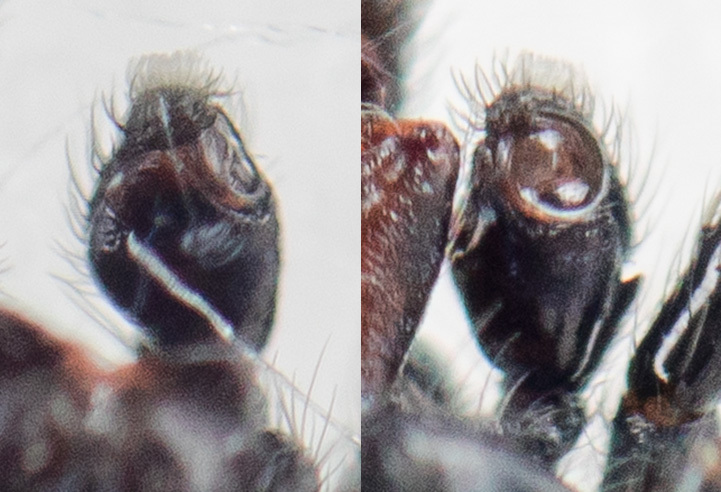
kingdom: Animalia
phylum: Arthropoda
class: Arachnida
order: Araneae
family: Salticidae
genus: Chalcoscirtus
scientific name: Chalcoscirtus nigritus
